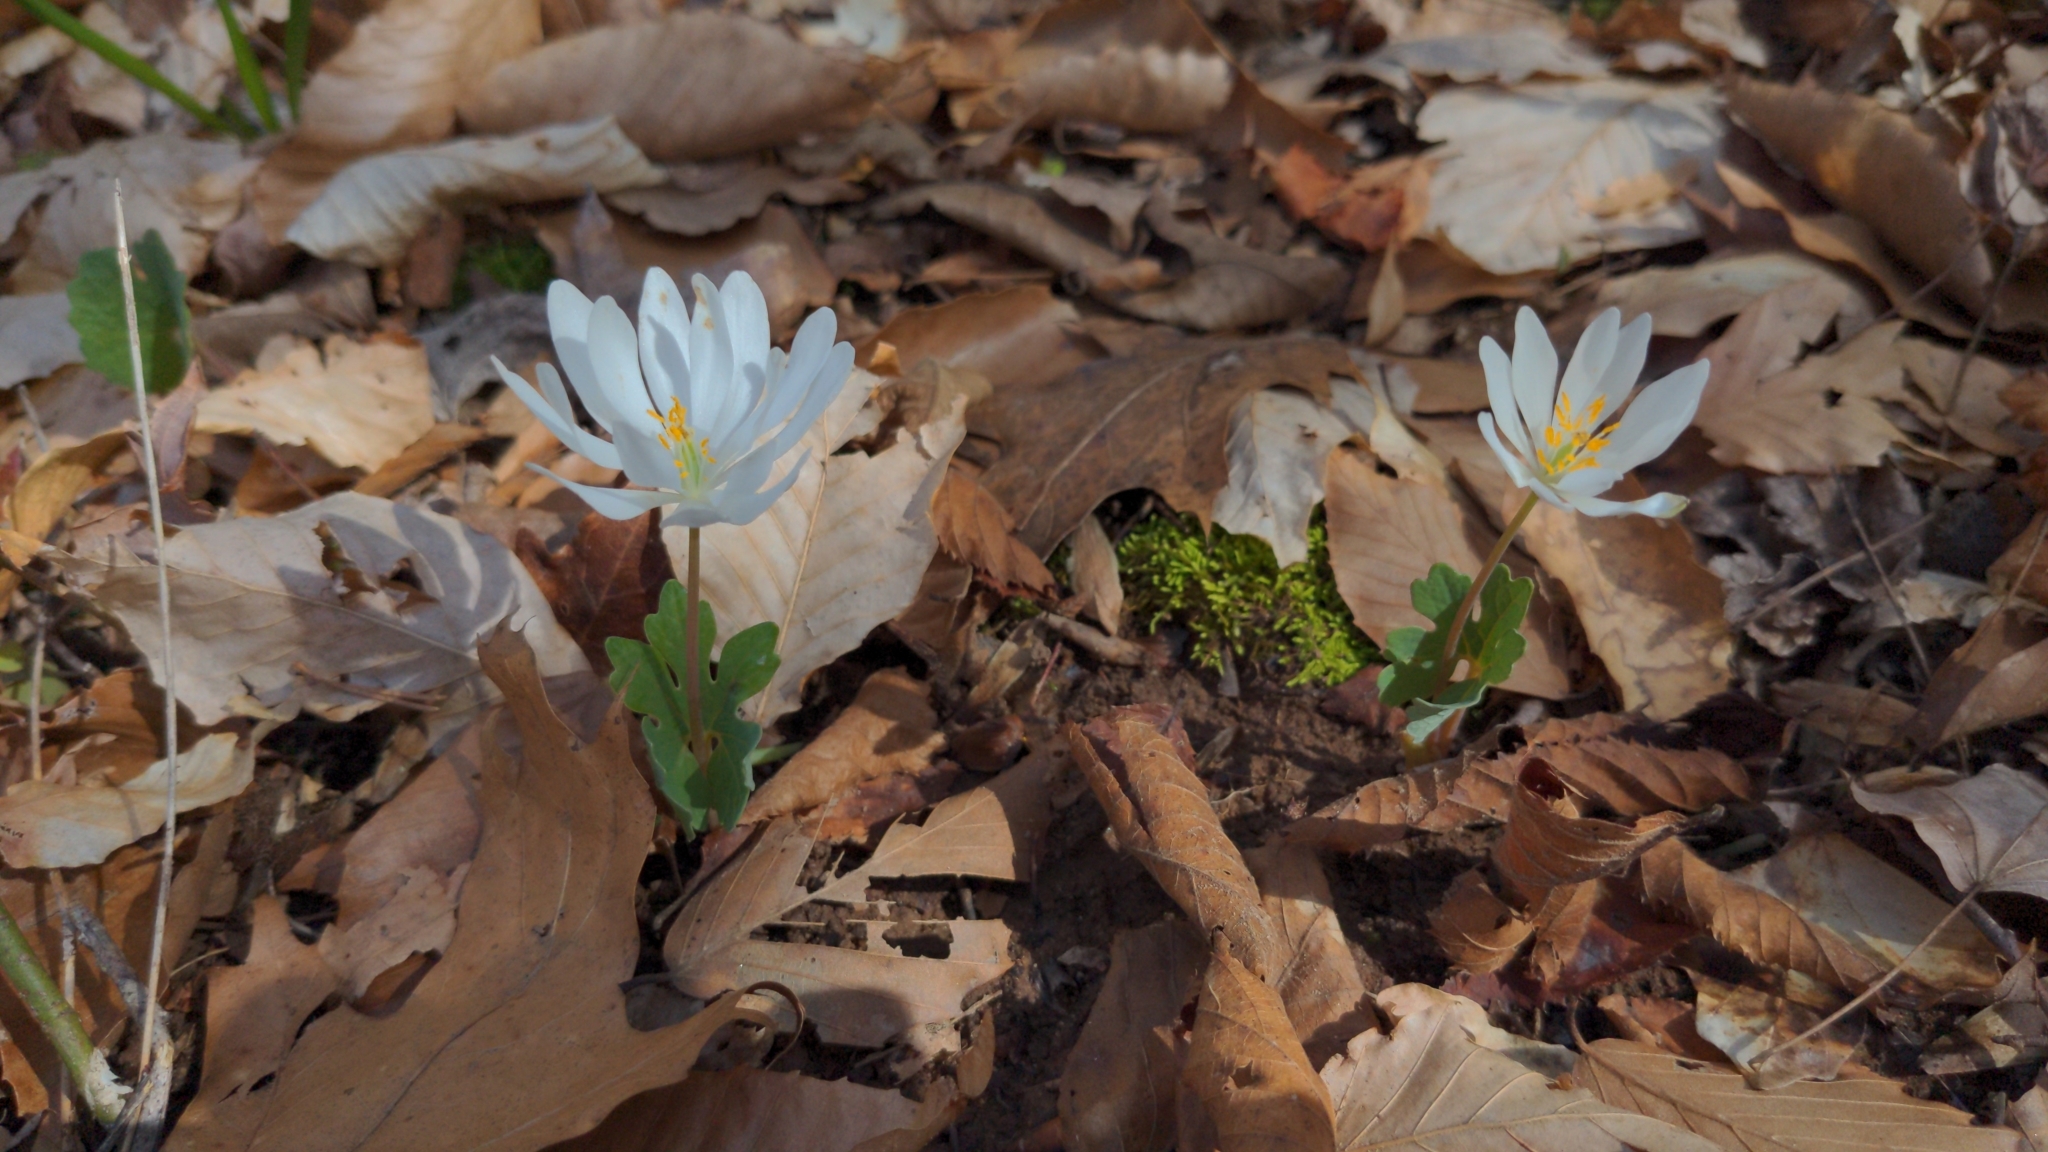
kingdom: Plantae
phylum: Tracheophyta
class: Magnoliopsida
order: Ranunculales
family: Papaveraceae
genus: Sanguinaria
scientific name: Sanguinaria canadensis
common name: Bloodroot
